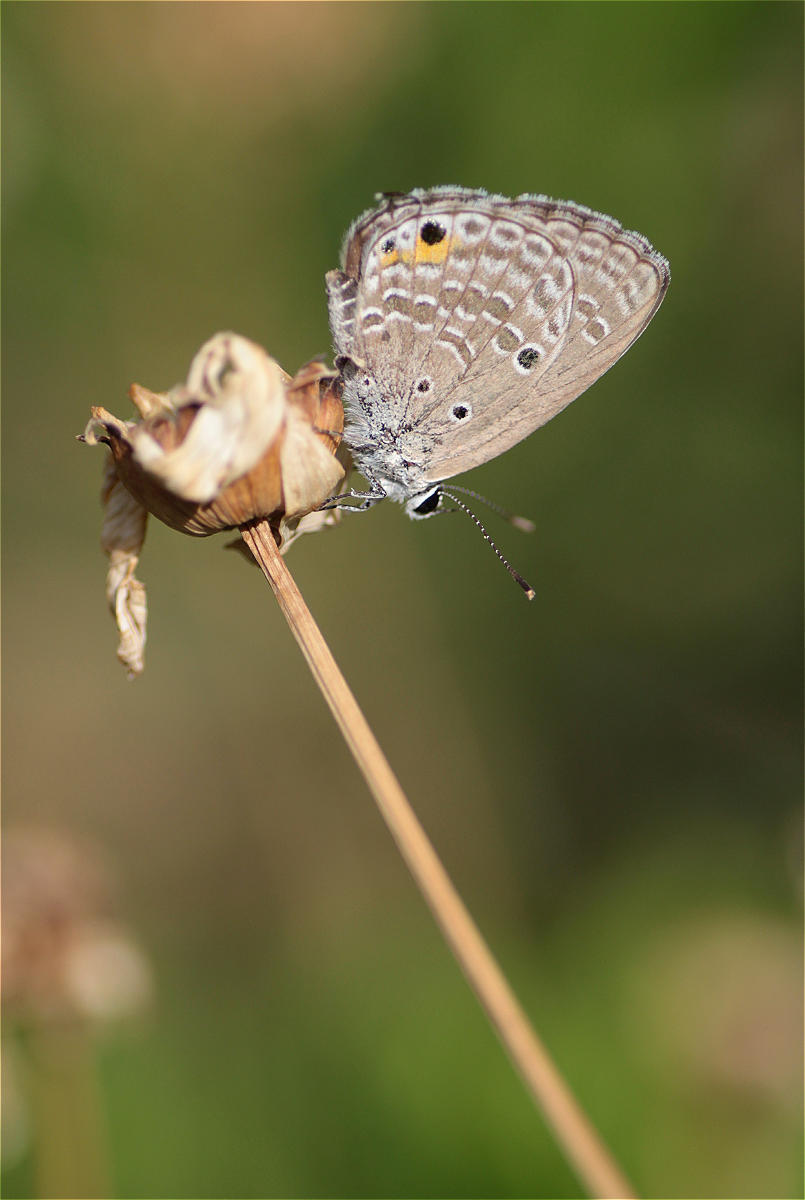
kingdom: Animalia
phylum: Arthropoda
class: Insecta
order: Lepidoptera
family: Lycaenidae
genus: Luthrodes
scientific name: Luthrodes pandava
